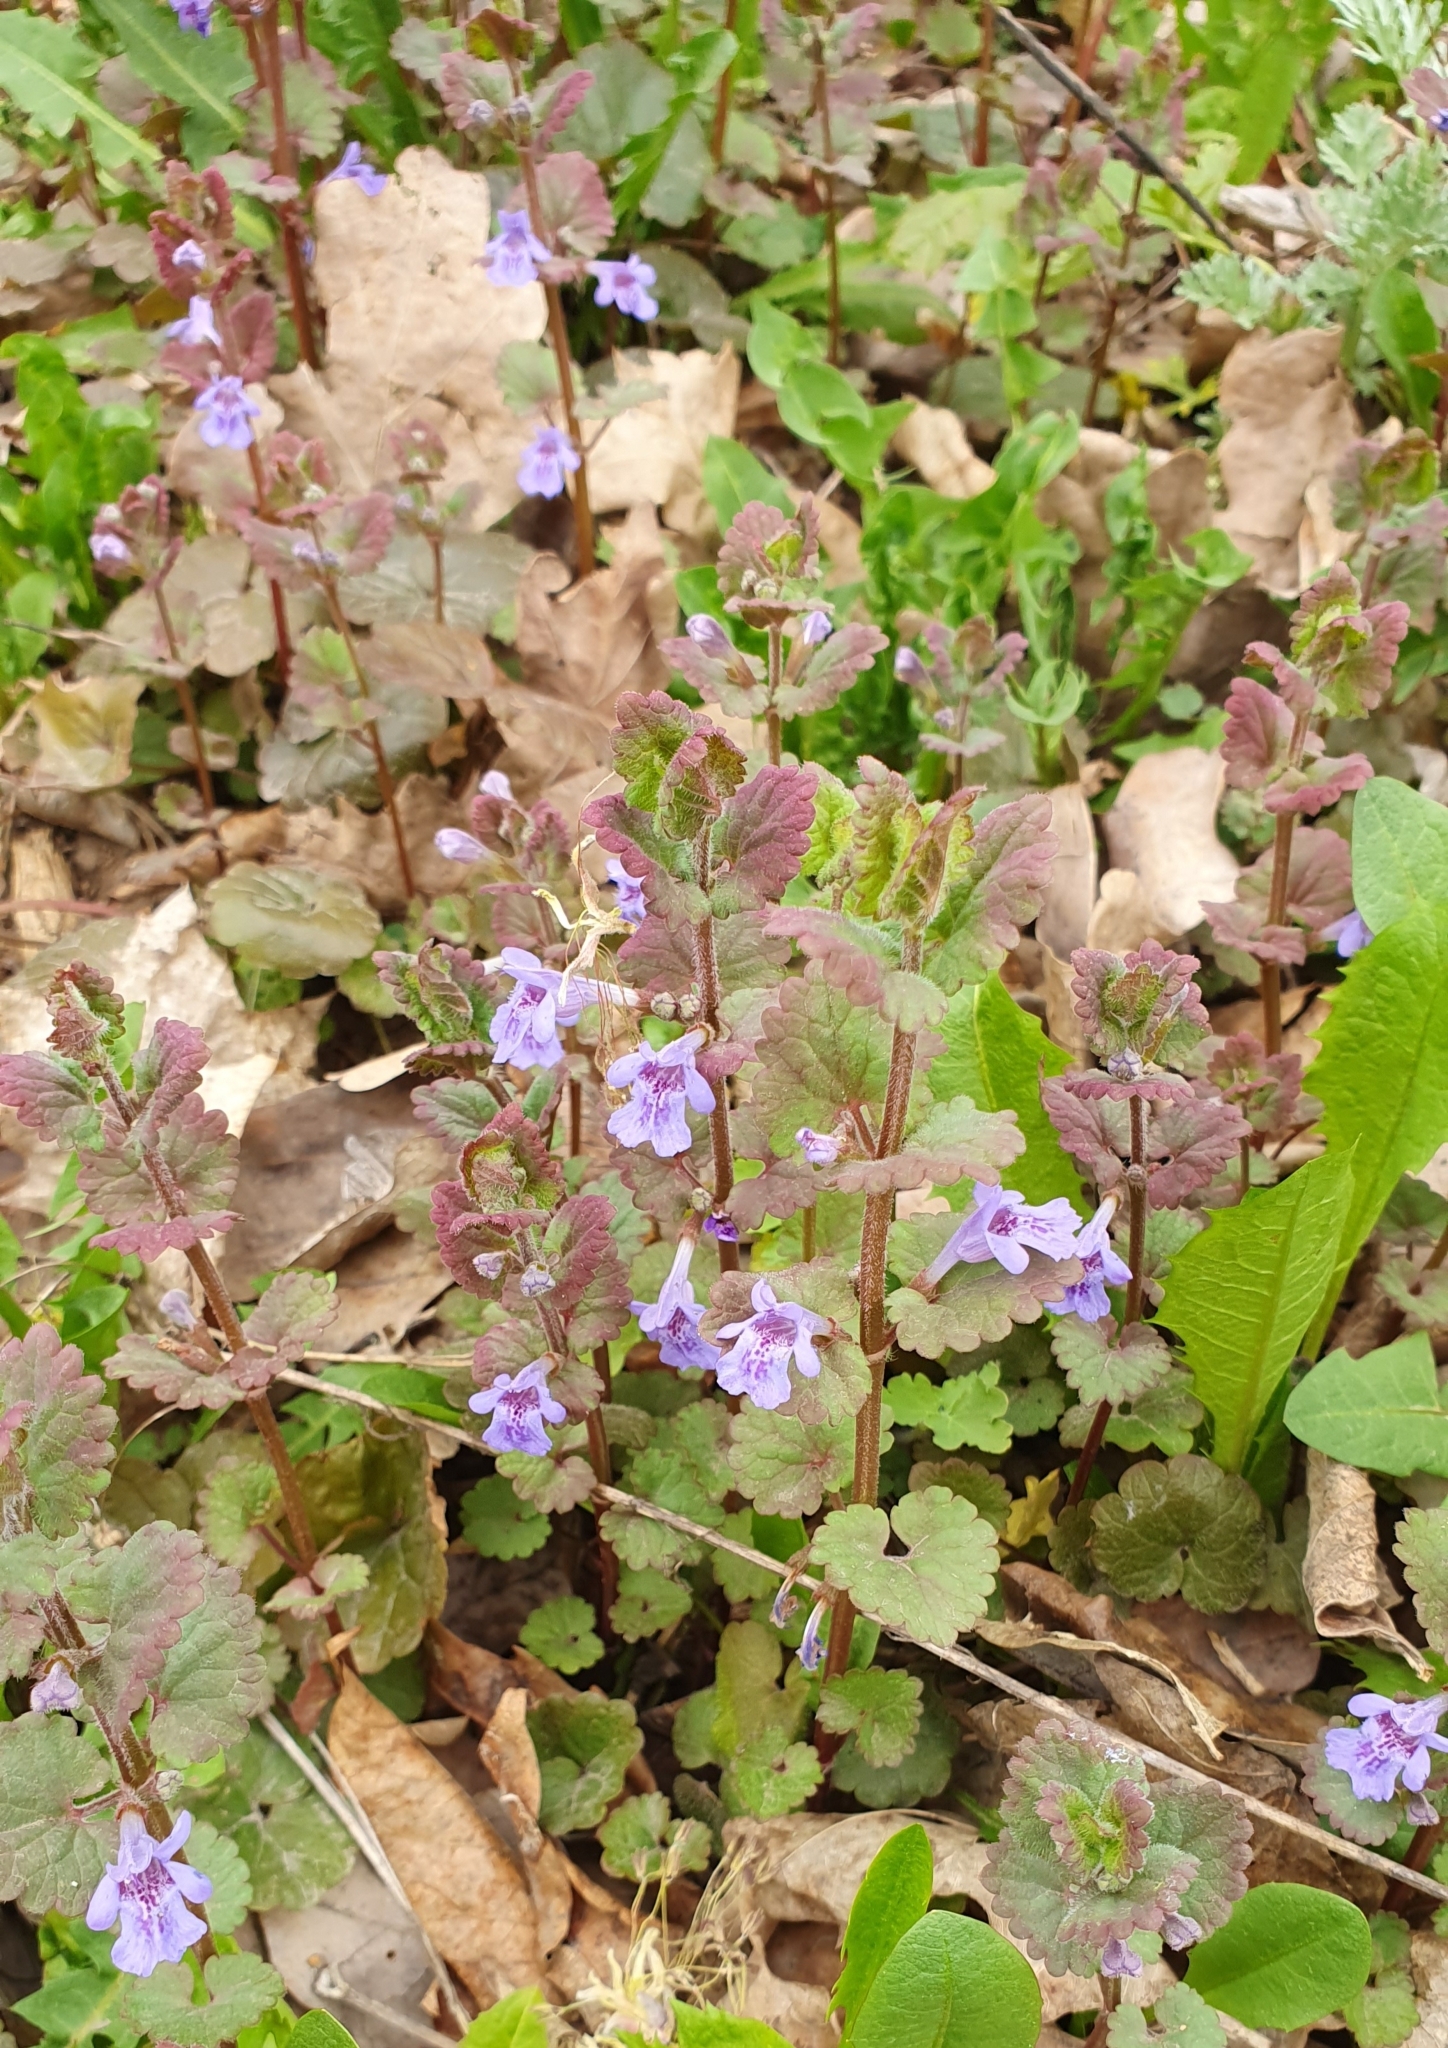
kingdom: Plantae
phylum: Tracheophyta
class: Magnoliopsida
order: Lamiales
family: Lamiaceae
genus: Glechoma
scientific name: Glechoma hederacea
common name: Ground ivy
